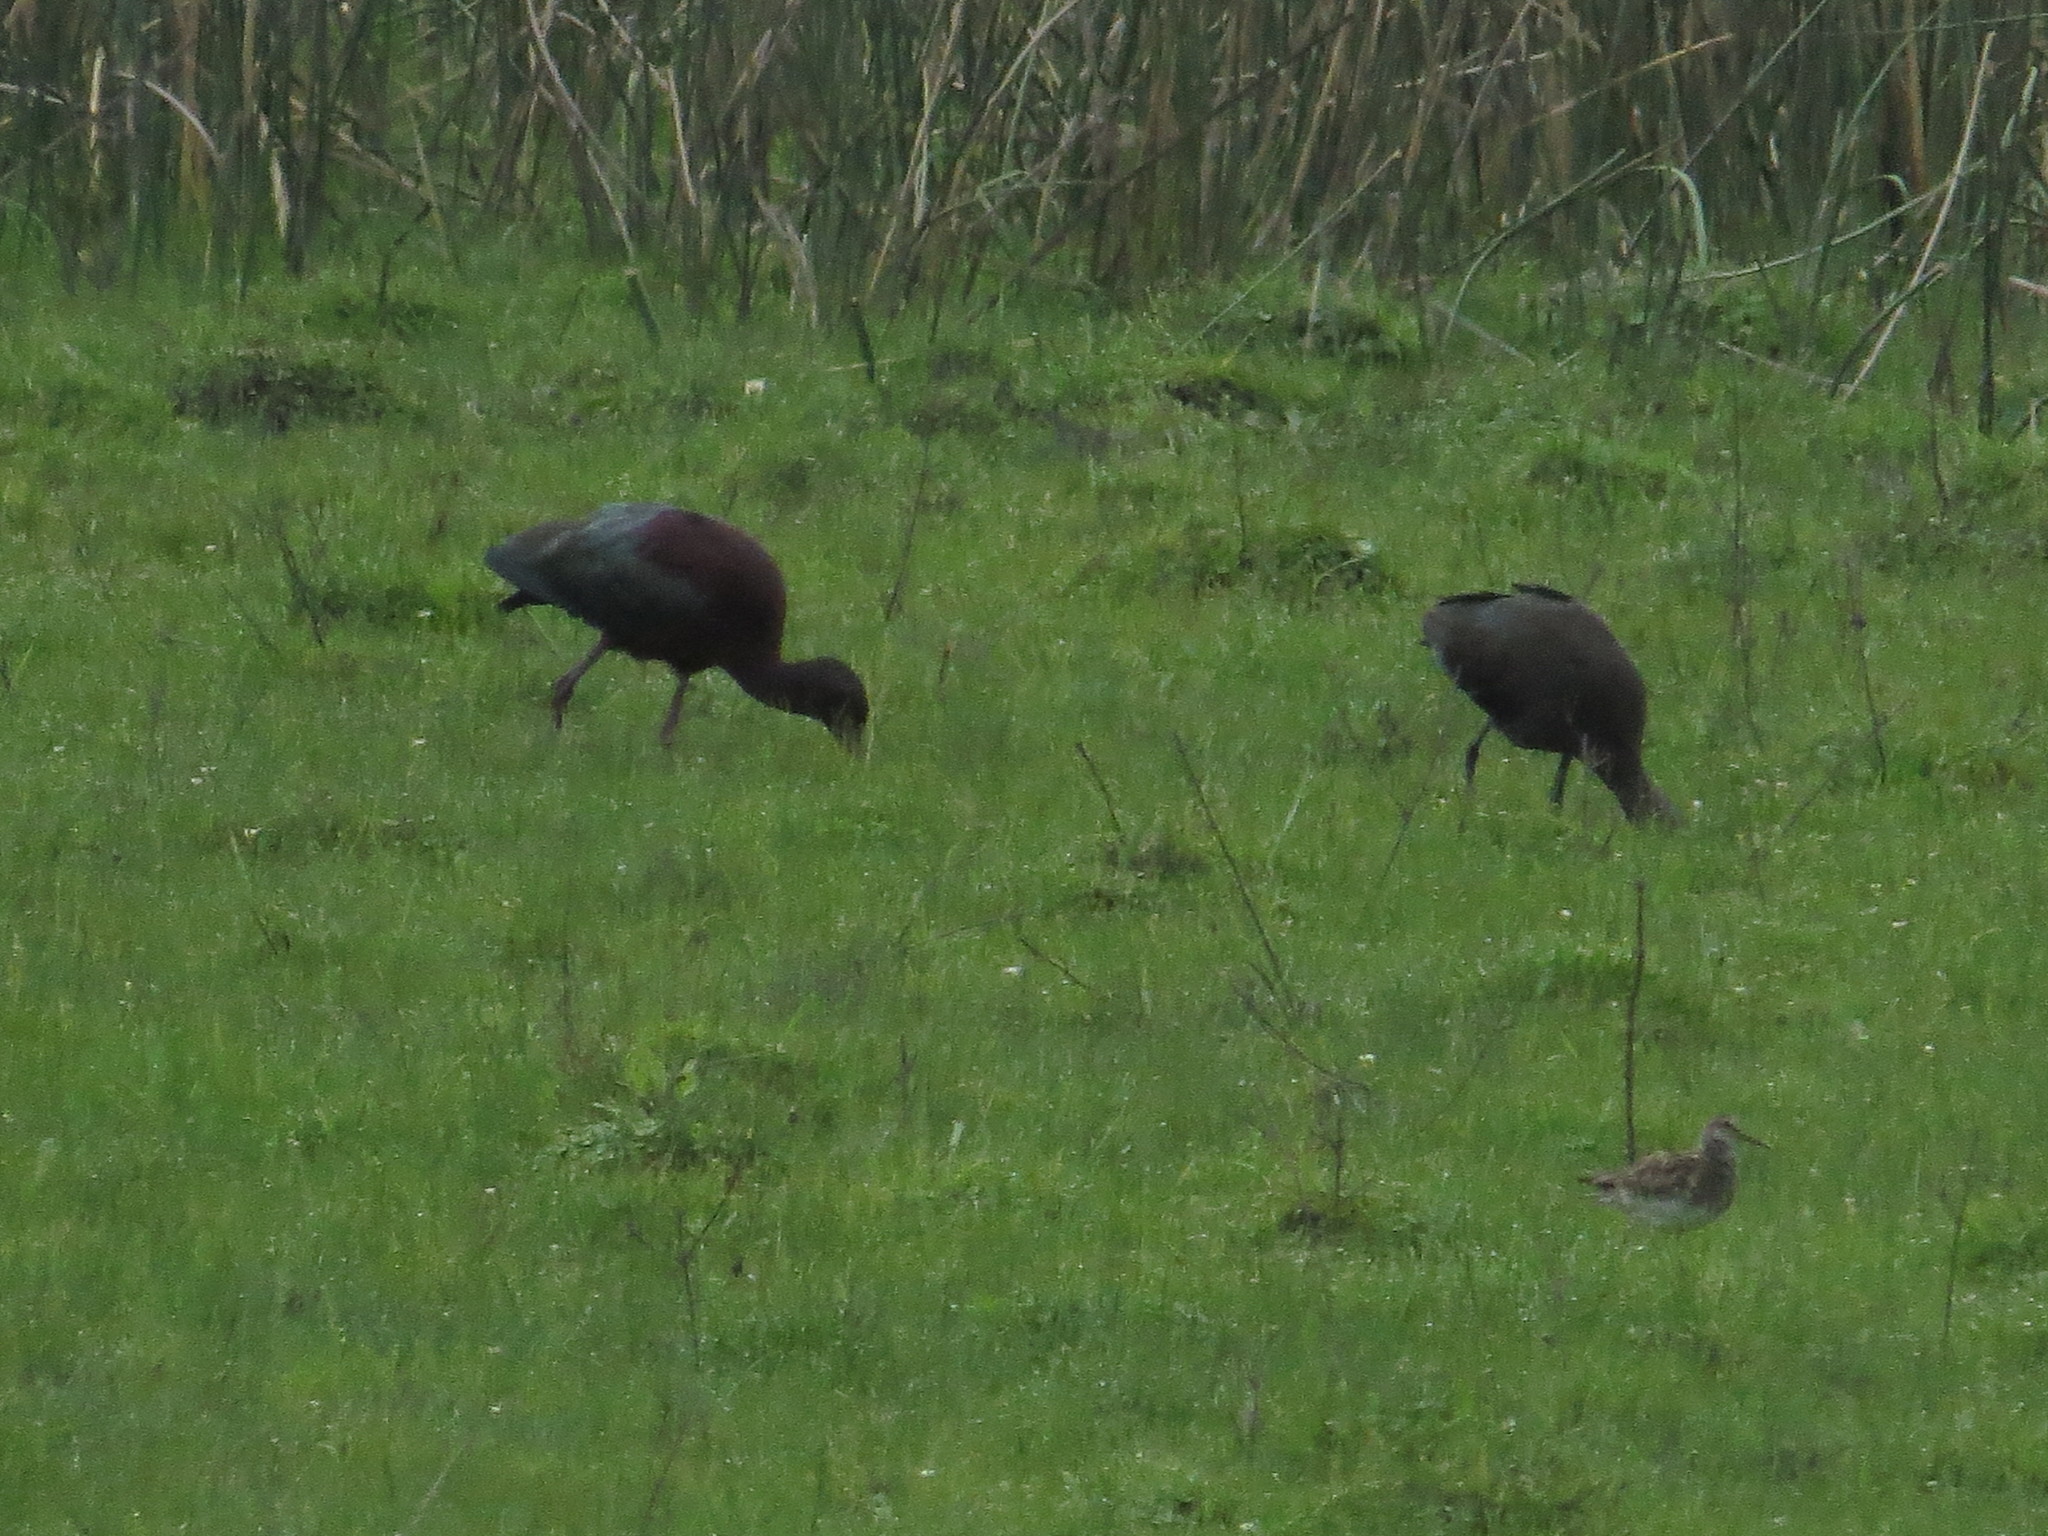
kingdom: Animalia
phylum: Chordata
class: Aves
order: Pelecaniformes
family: Threskiornithidae
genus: Plegadis
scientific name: Plegadis chihi
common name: White-faced ibis
